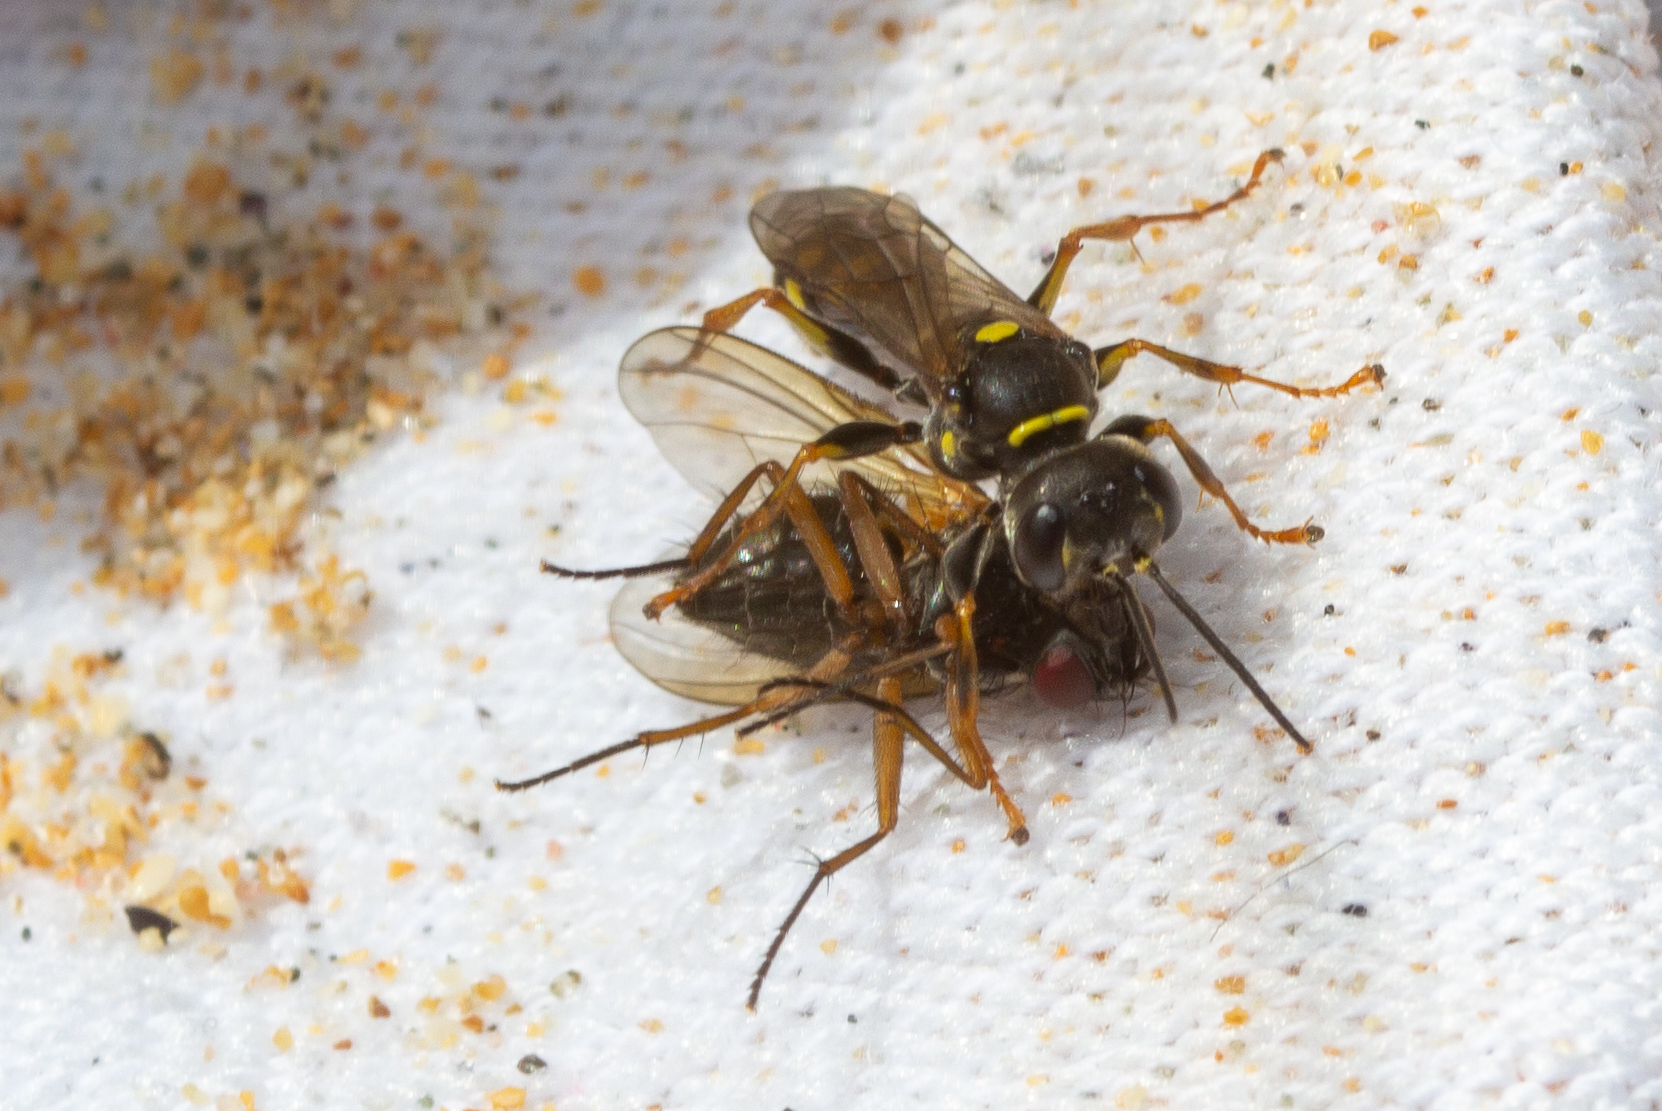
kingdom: Animalia
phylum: Arthropoda
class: Insecta
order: Hymenoptera
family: Crabronidae
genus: Mellinus
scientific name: Mellinus arvensis
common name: Field digger wasp
